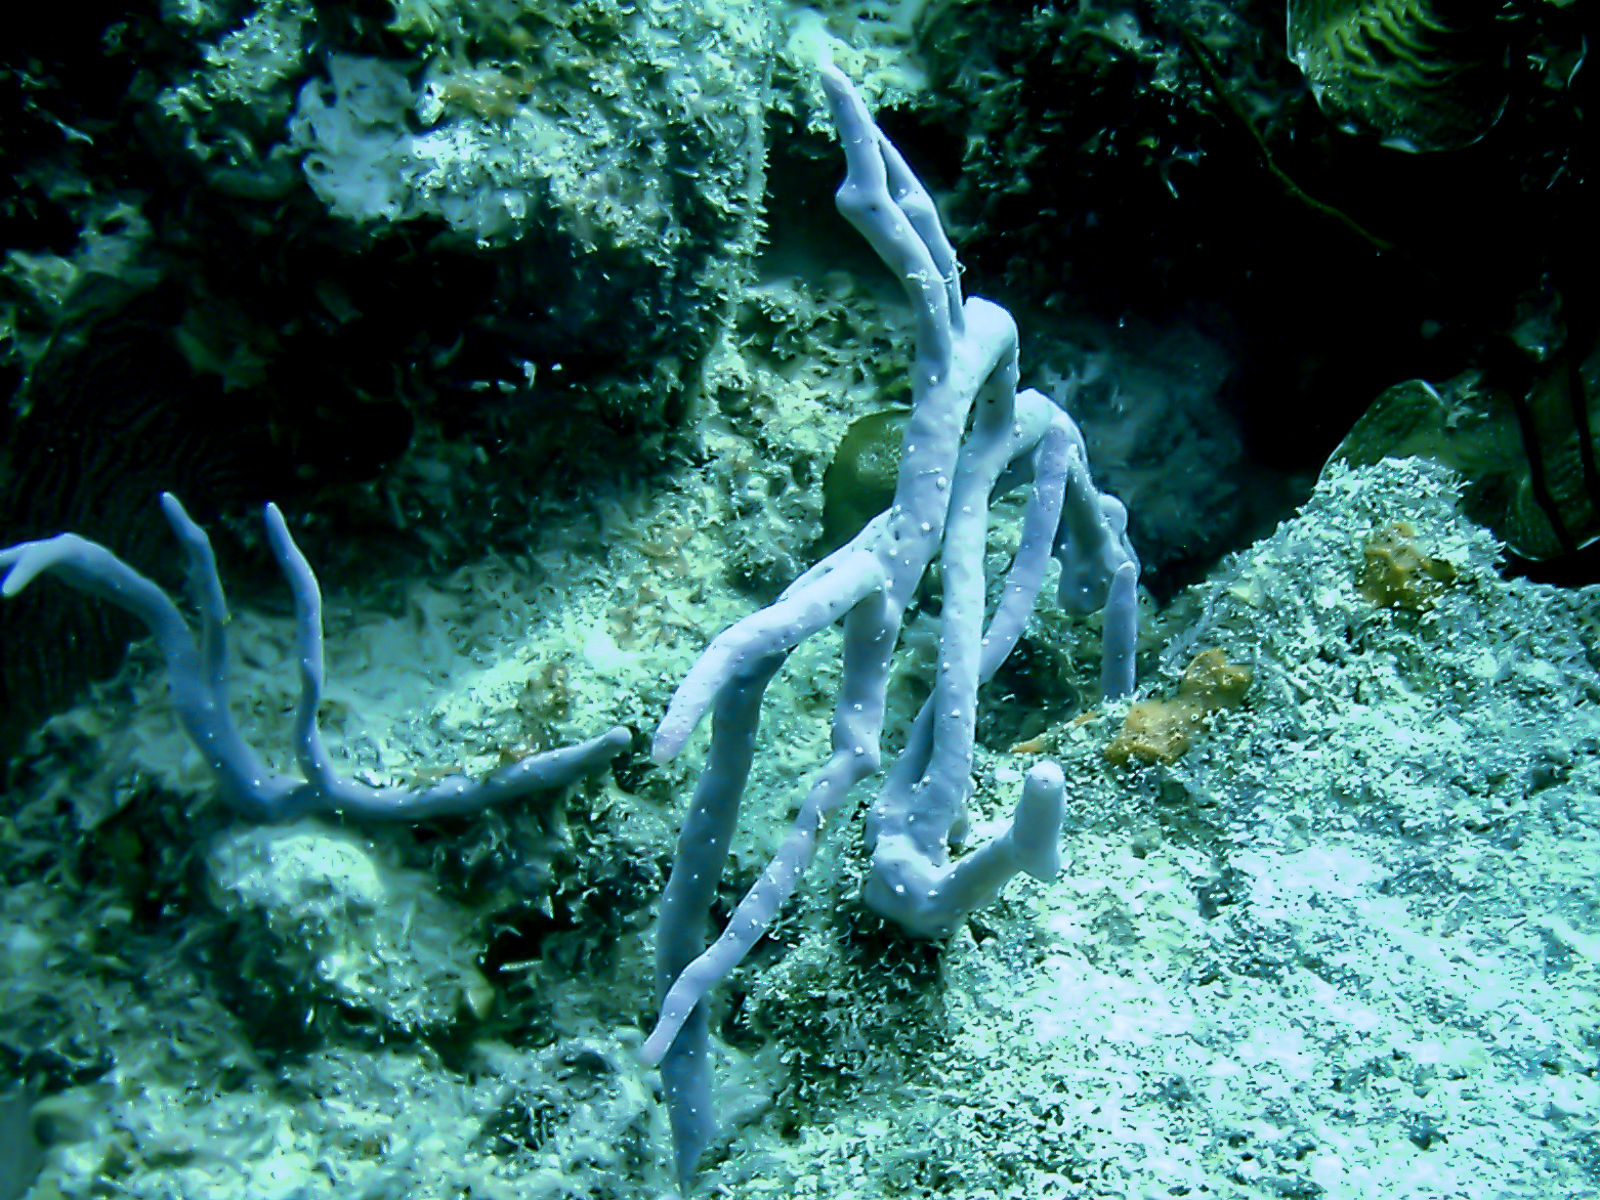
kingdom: Animalia
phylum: Porifera
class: Demospongiae
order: Verongiida
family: Aplysinidae
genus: Aplysina
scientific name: Aplysina cauliformis
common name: Branching candle sponge
